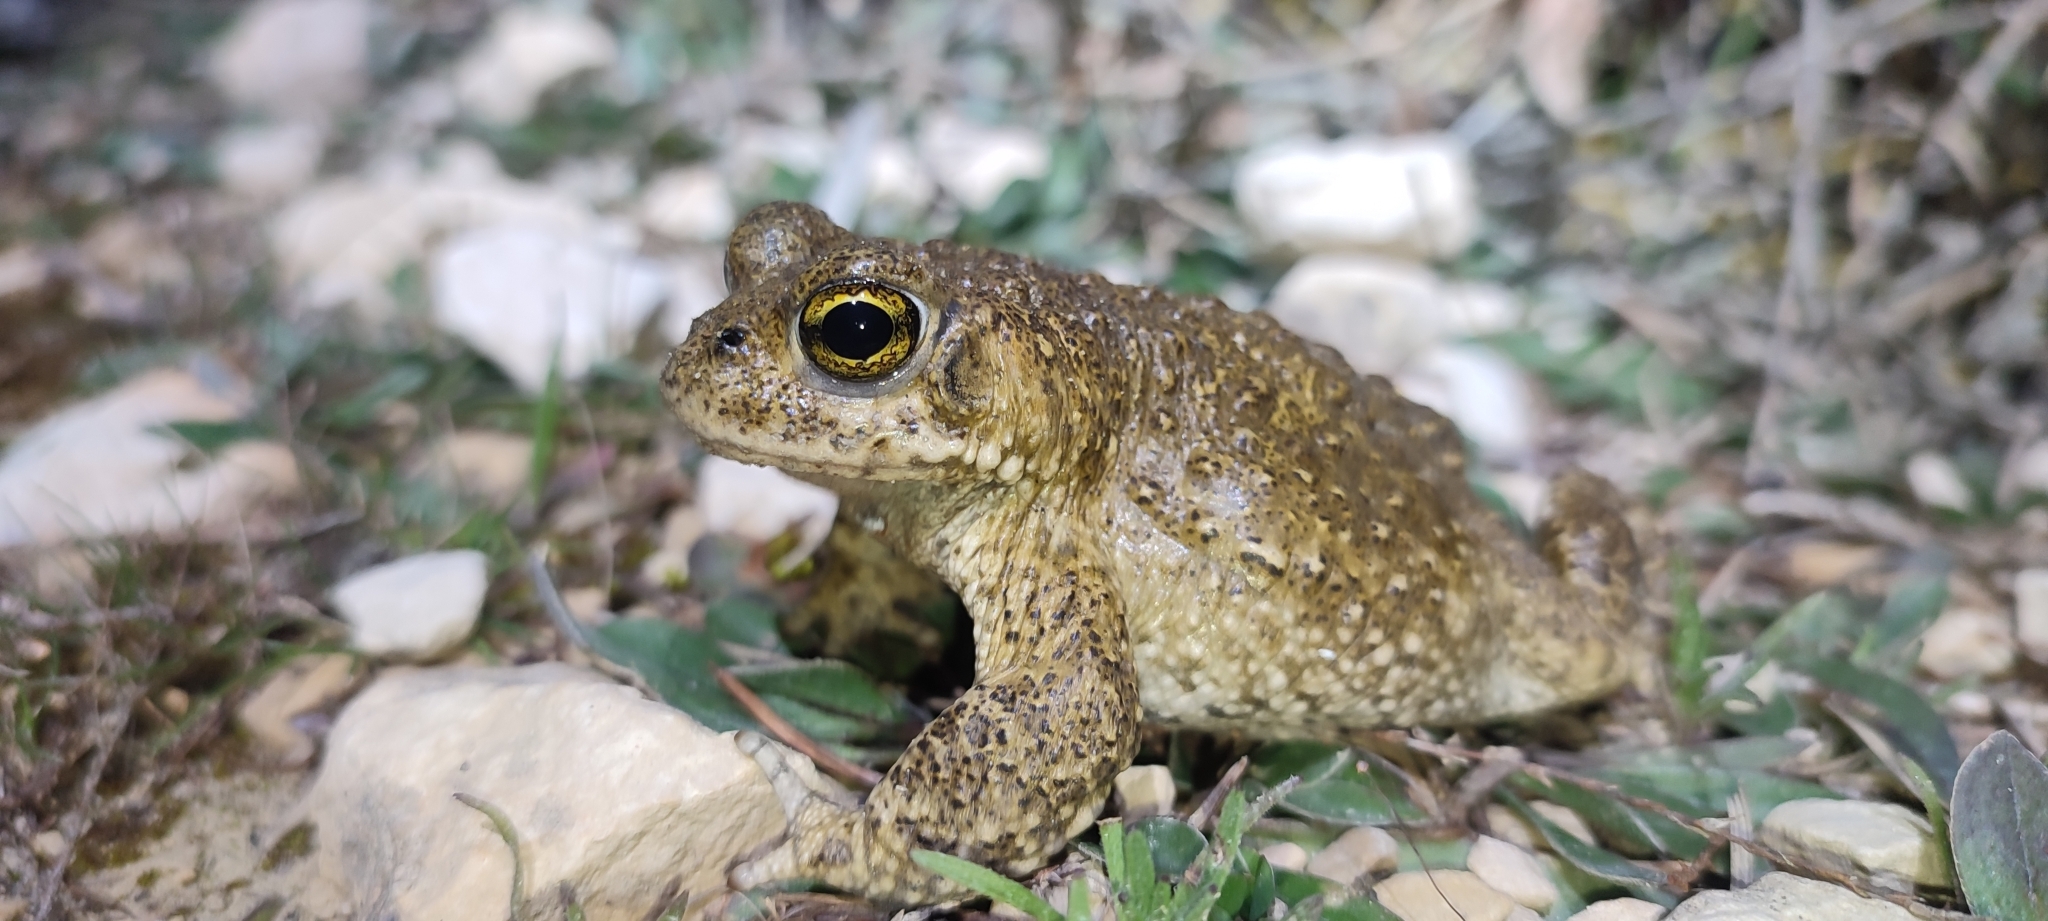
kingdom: Animalia
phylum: Chordata
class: Amphibia
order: Anura
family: Bufonidae
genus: Epidalea
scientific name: Epidalea calamita
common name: Natterjack toad
